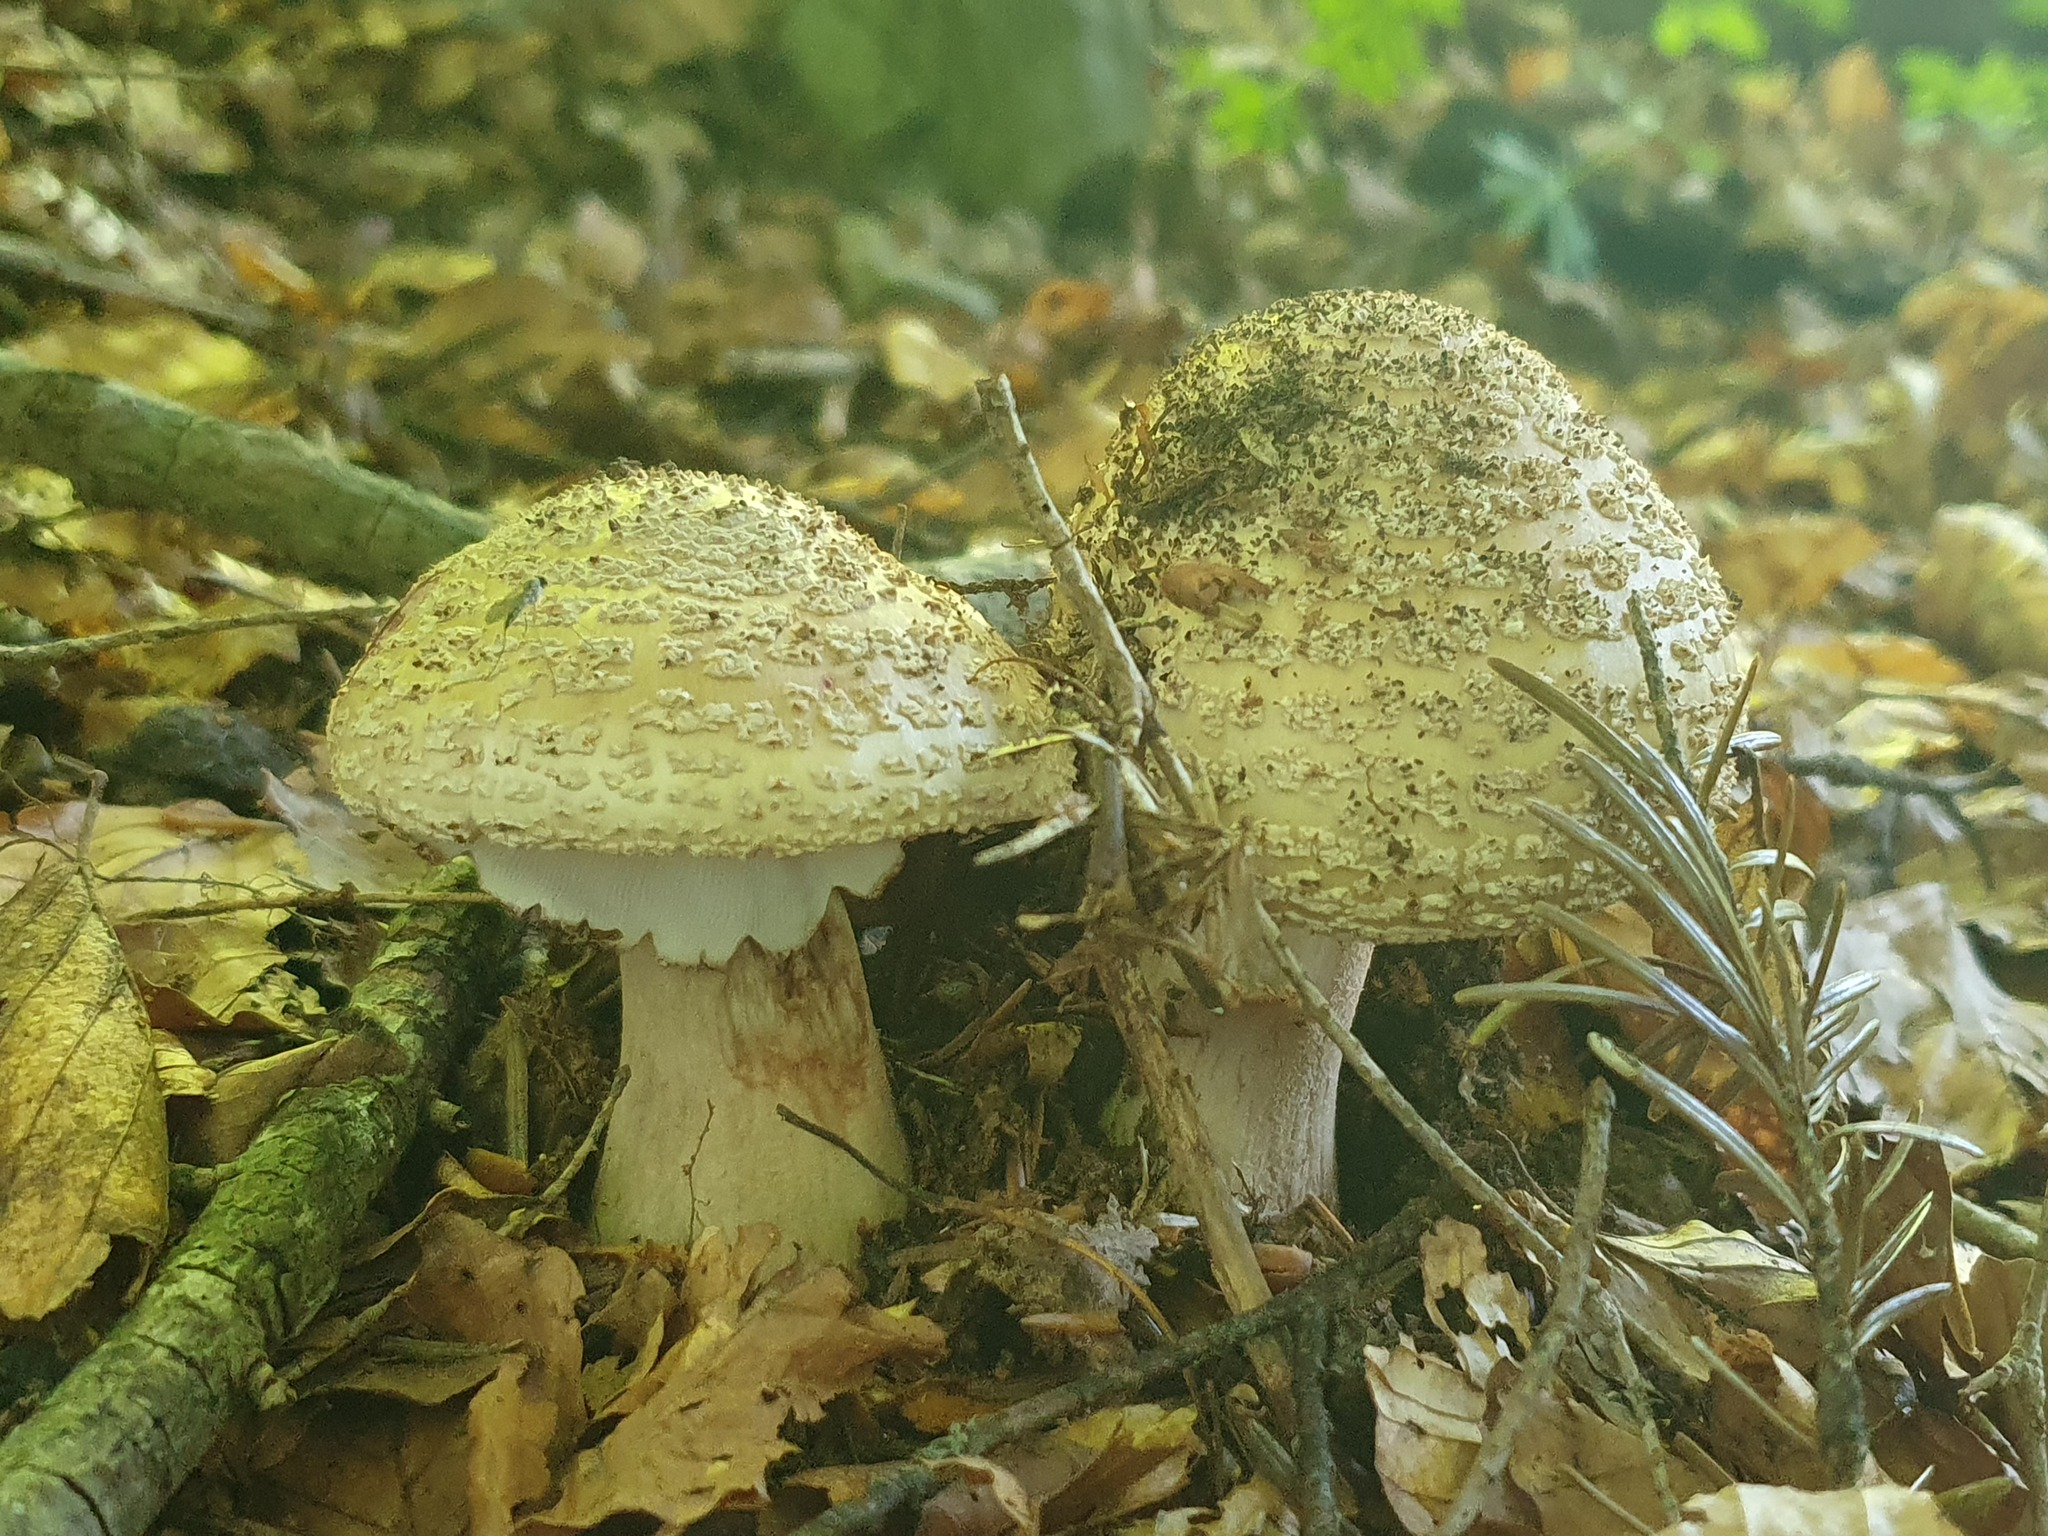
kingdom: Fungi
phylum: Basidiomycota
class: Agaricomycetes
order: Agaricales
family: Amanitaceae
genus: Amanita
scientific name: Amanita rubescens
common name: Blusher
